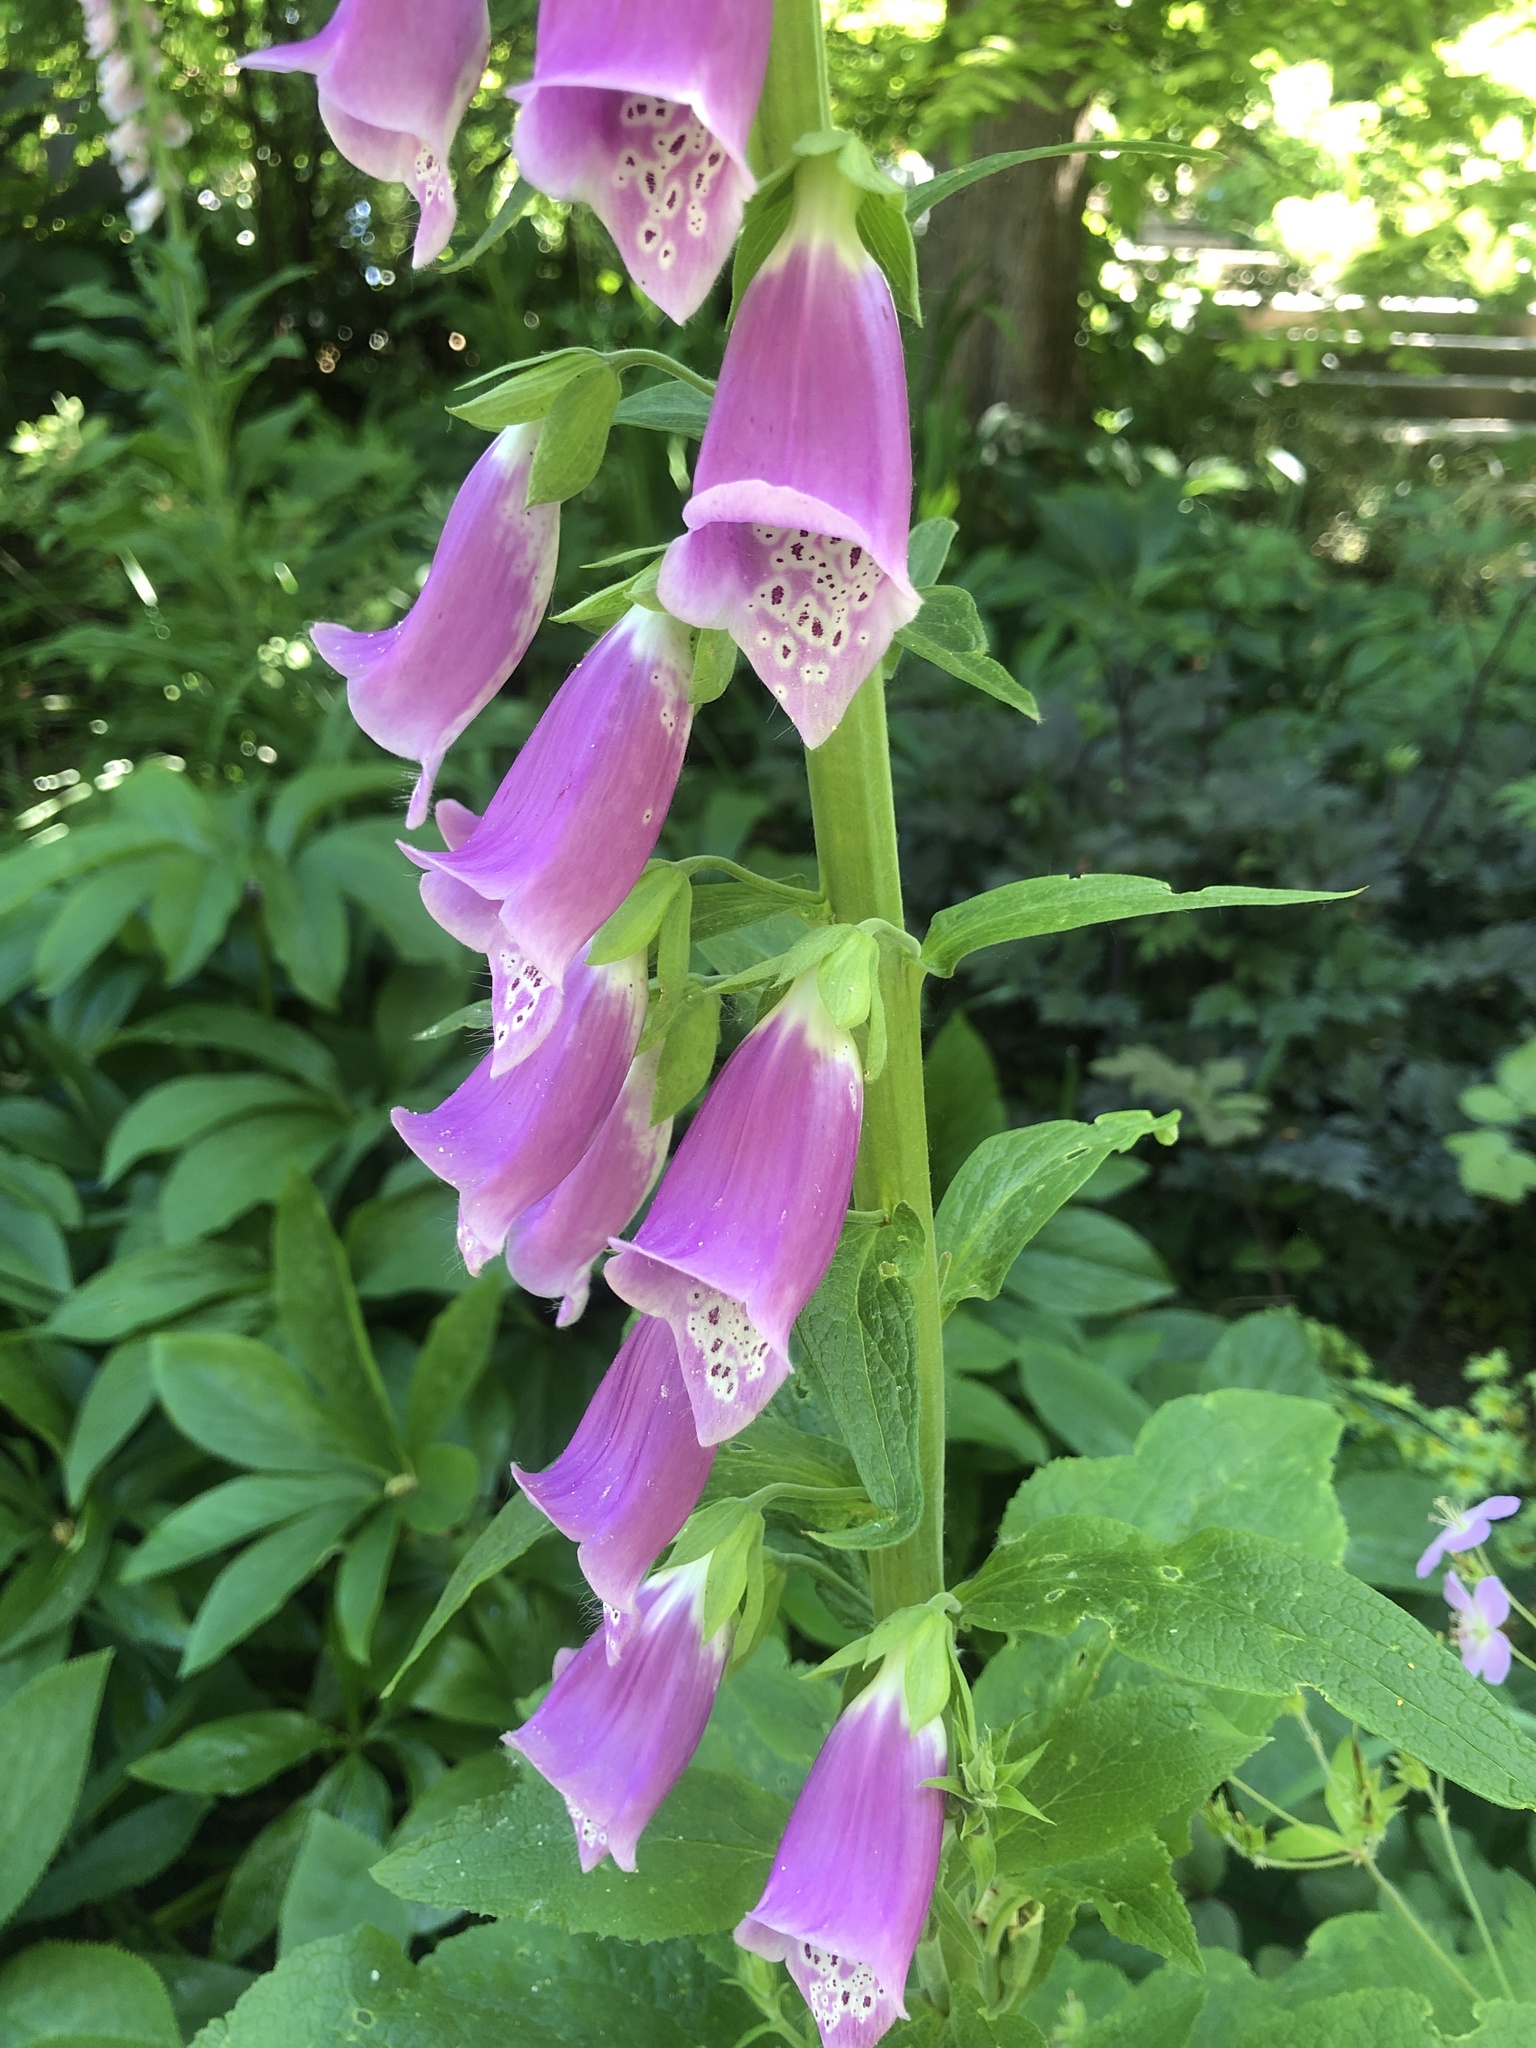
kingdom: Plantae
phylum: Tracheophyta
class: Magnoliopsida
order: Lamiales
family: Plantaginaceae
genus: Digitalis
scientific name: Digitalis purpurea
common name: Foxglove
